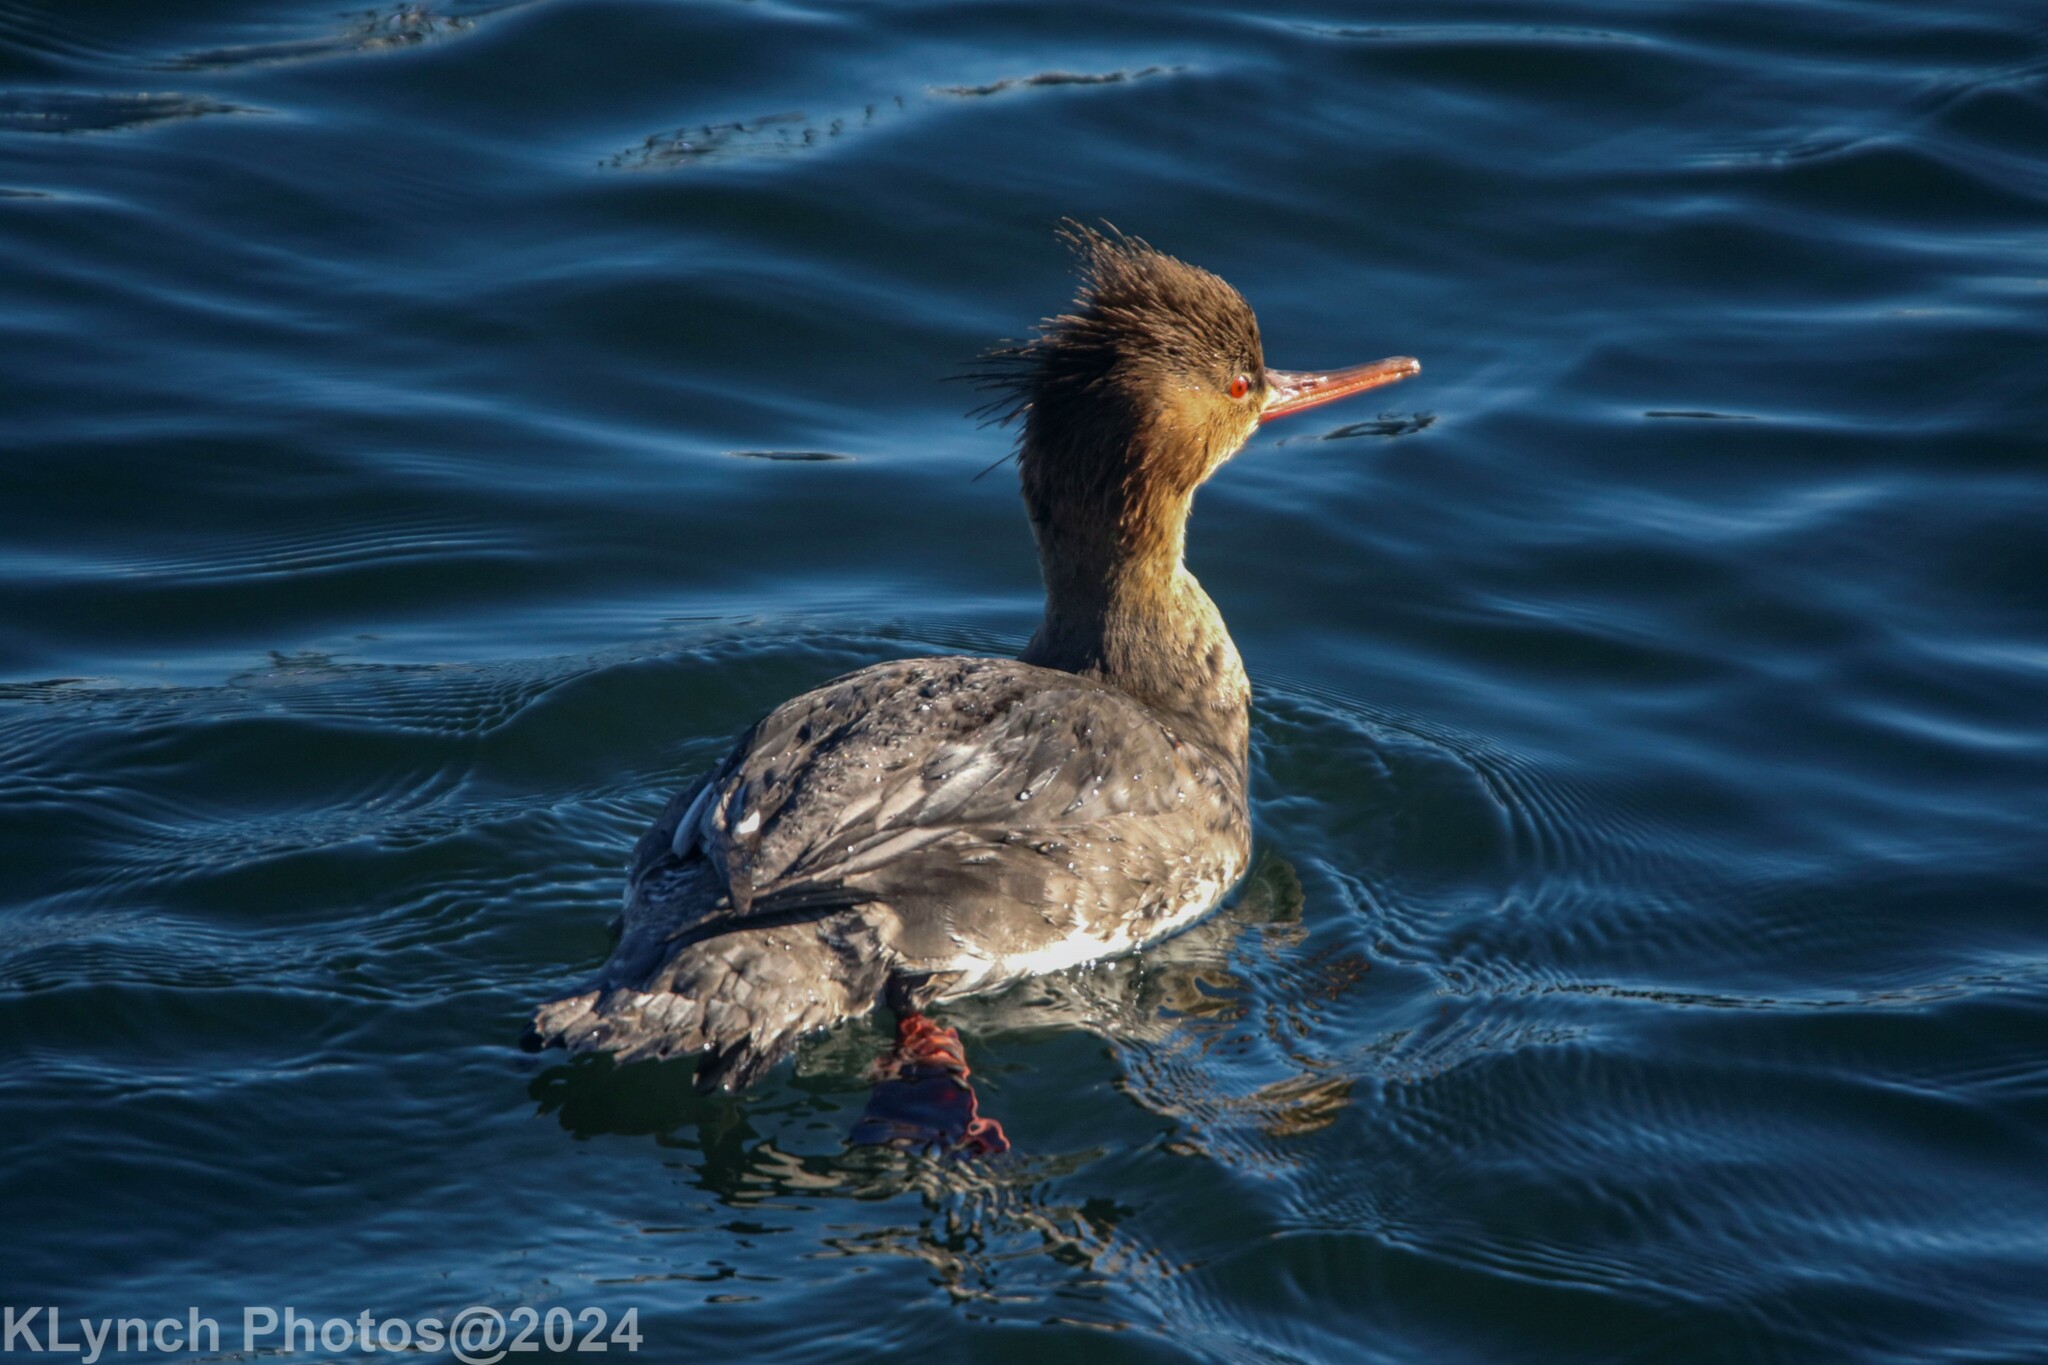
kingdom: Animalia
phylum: Chordata
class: Aves
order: Anseriformes
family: Anatidae
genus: Mergus
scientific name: Mergus serrator
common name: Red-breasted merganser
